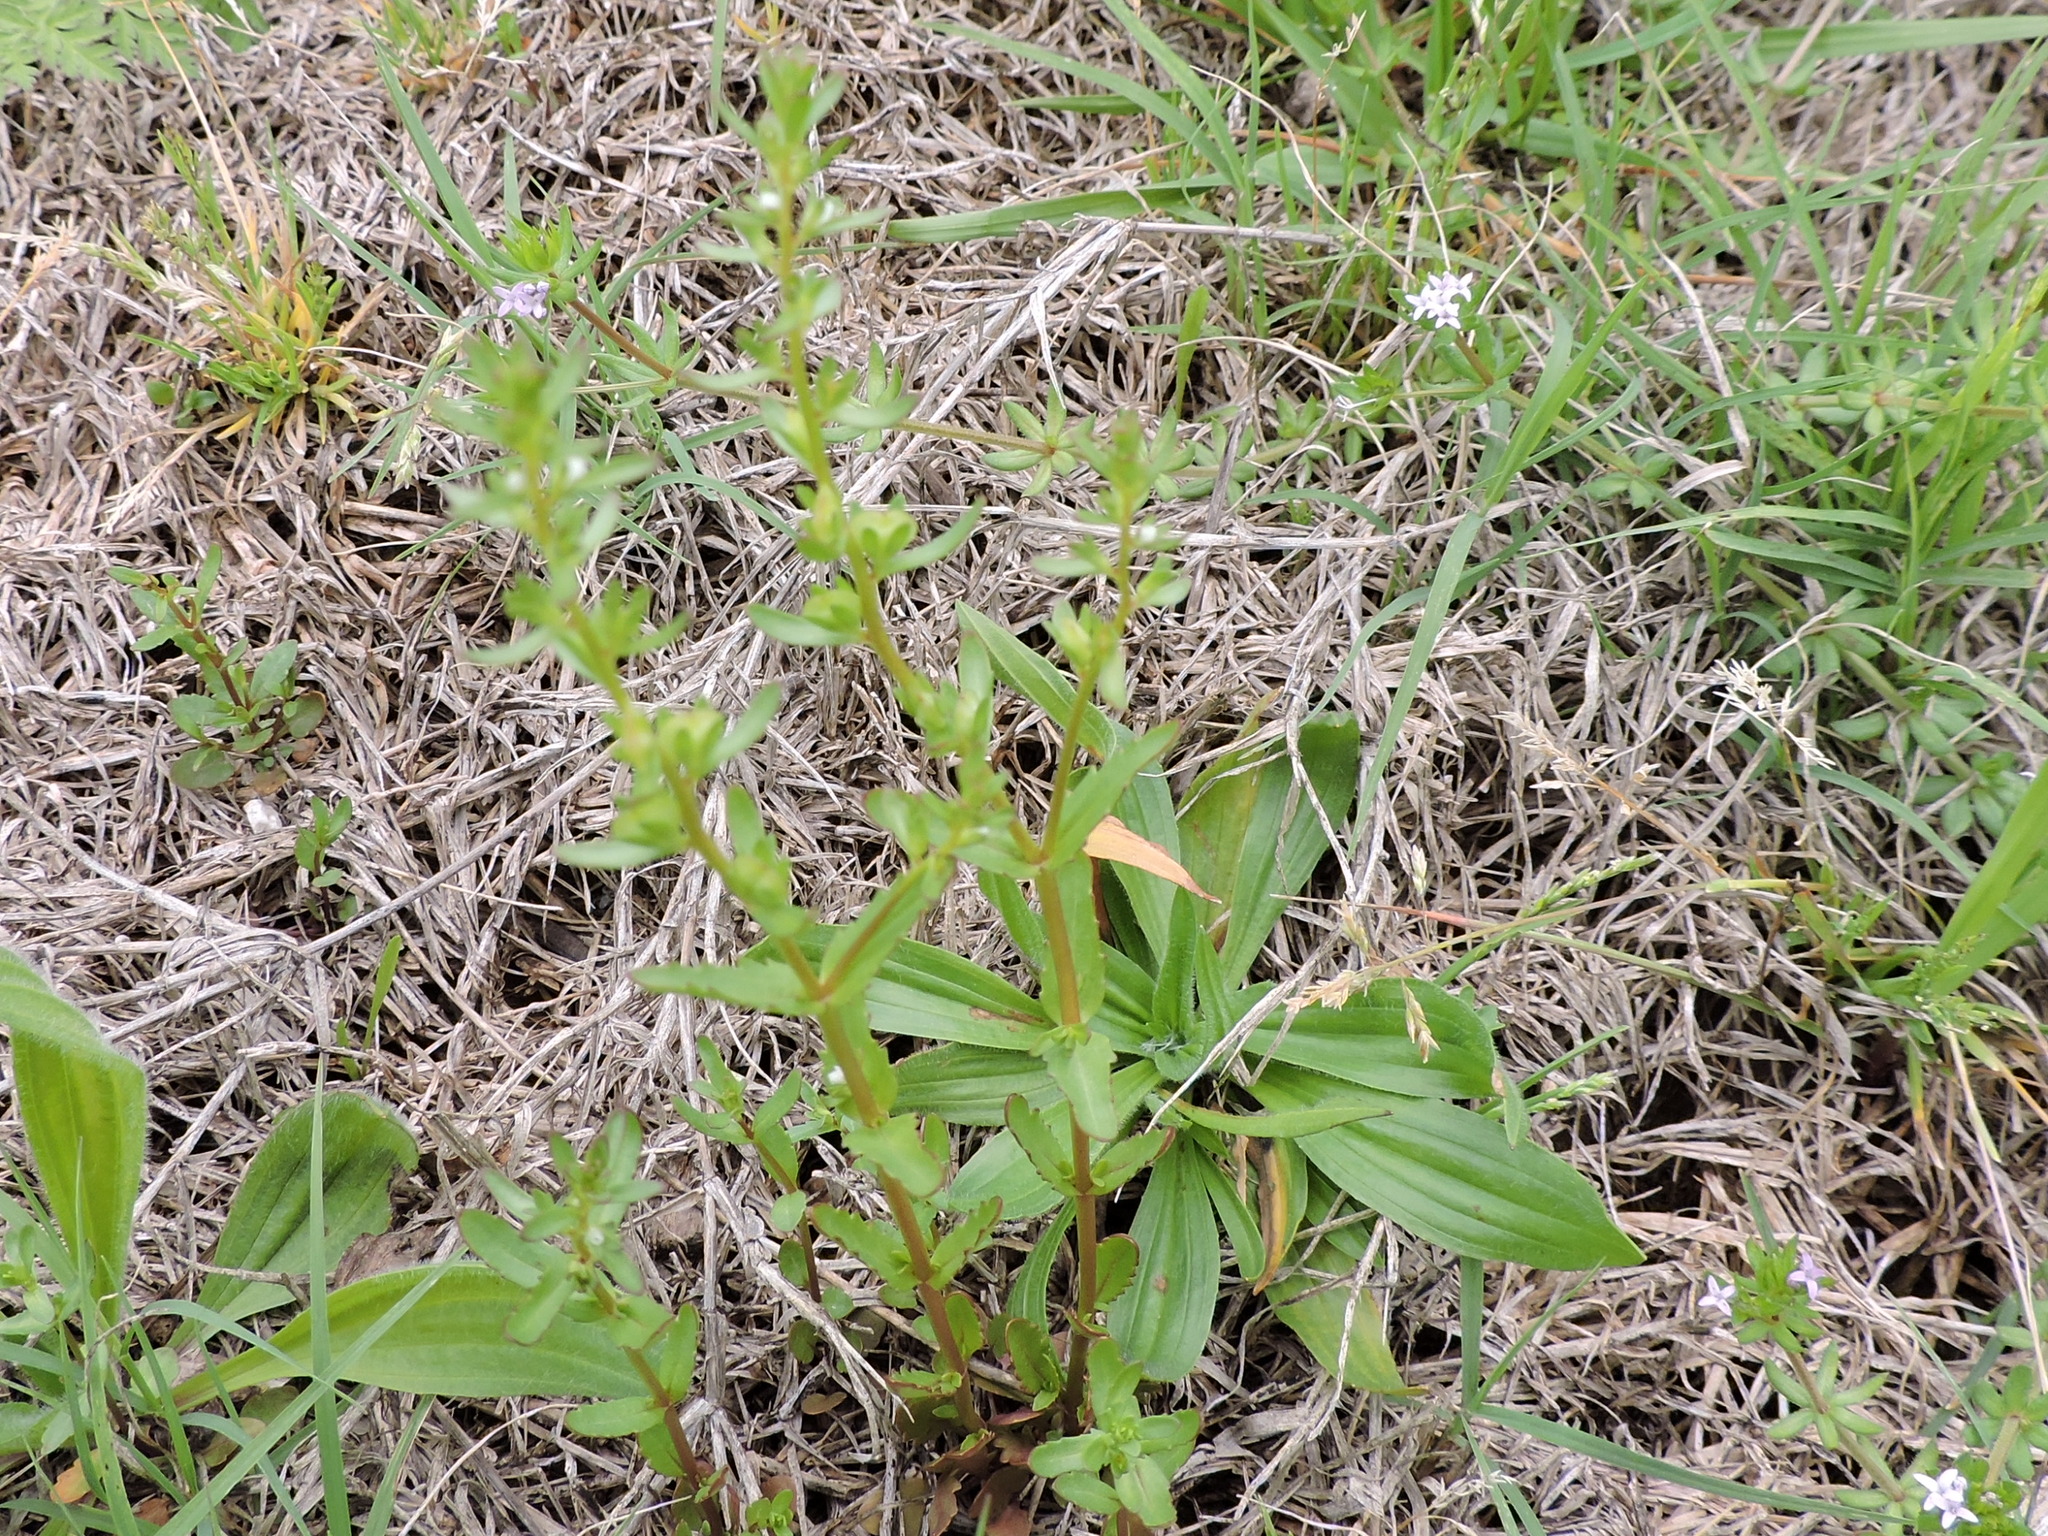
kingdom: Plantae
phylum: Tracheophyta
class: Magnoliopsida
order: Lamiales
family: Plantaginaceae
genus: Veronica
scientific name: Veronica peregrina
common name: Neckweed
